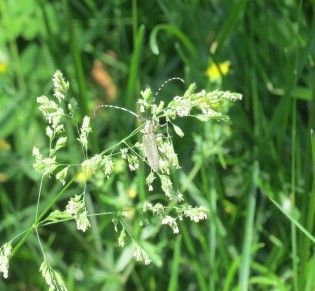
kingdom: Animalia
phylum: Arthropoda
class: Insecta
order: Coleoptera
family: Cerambycidae
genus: Agapanthia
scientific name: Agapanthia villosoviridescens
